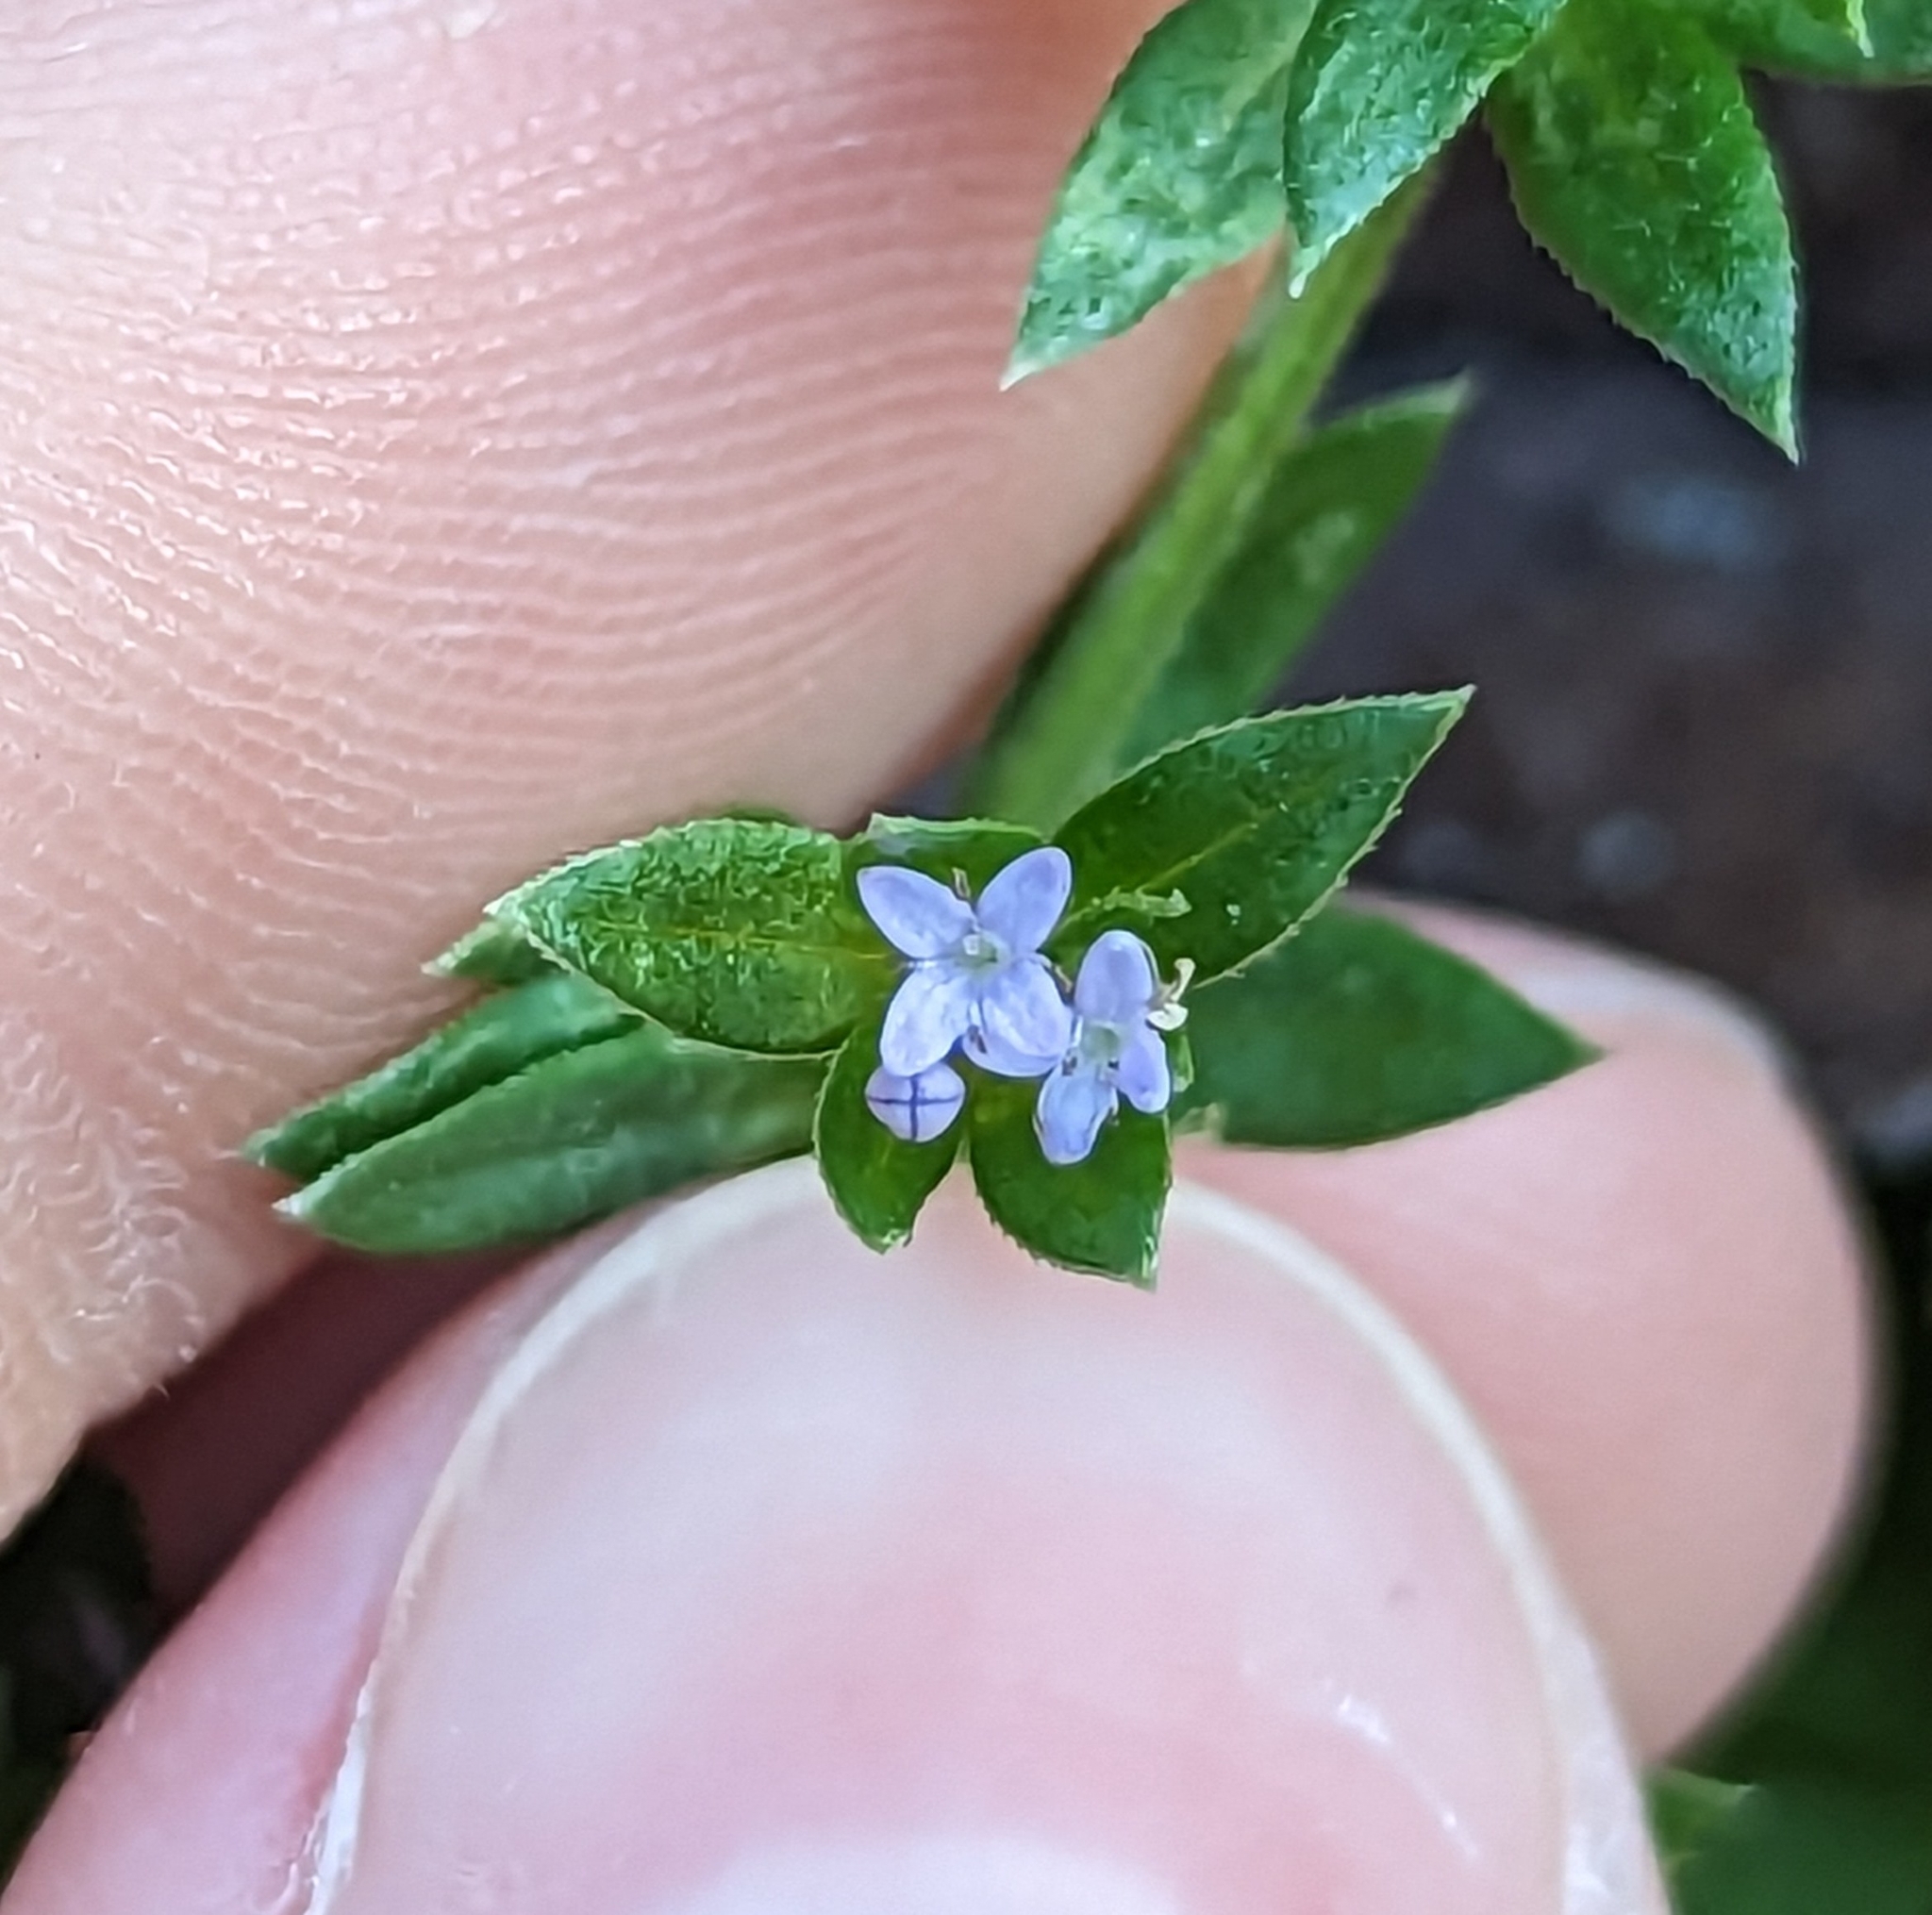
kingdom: Plantae
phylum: Tracheophyta
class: Magnoliopsida
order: Gentianales
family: Rubiaceae
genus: Sherardia
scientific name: Sherardia arvensis
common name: Field madder
